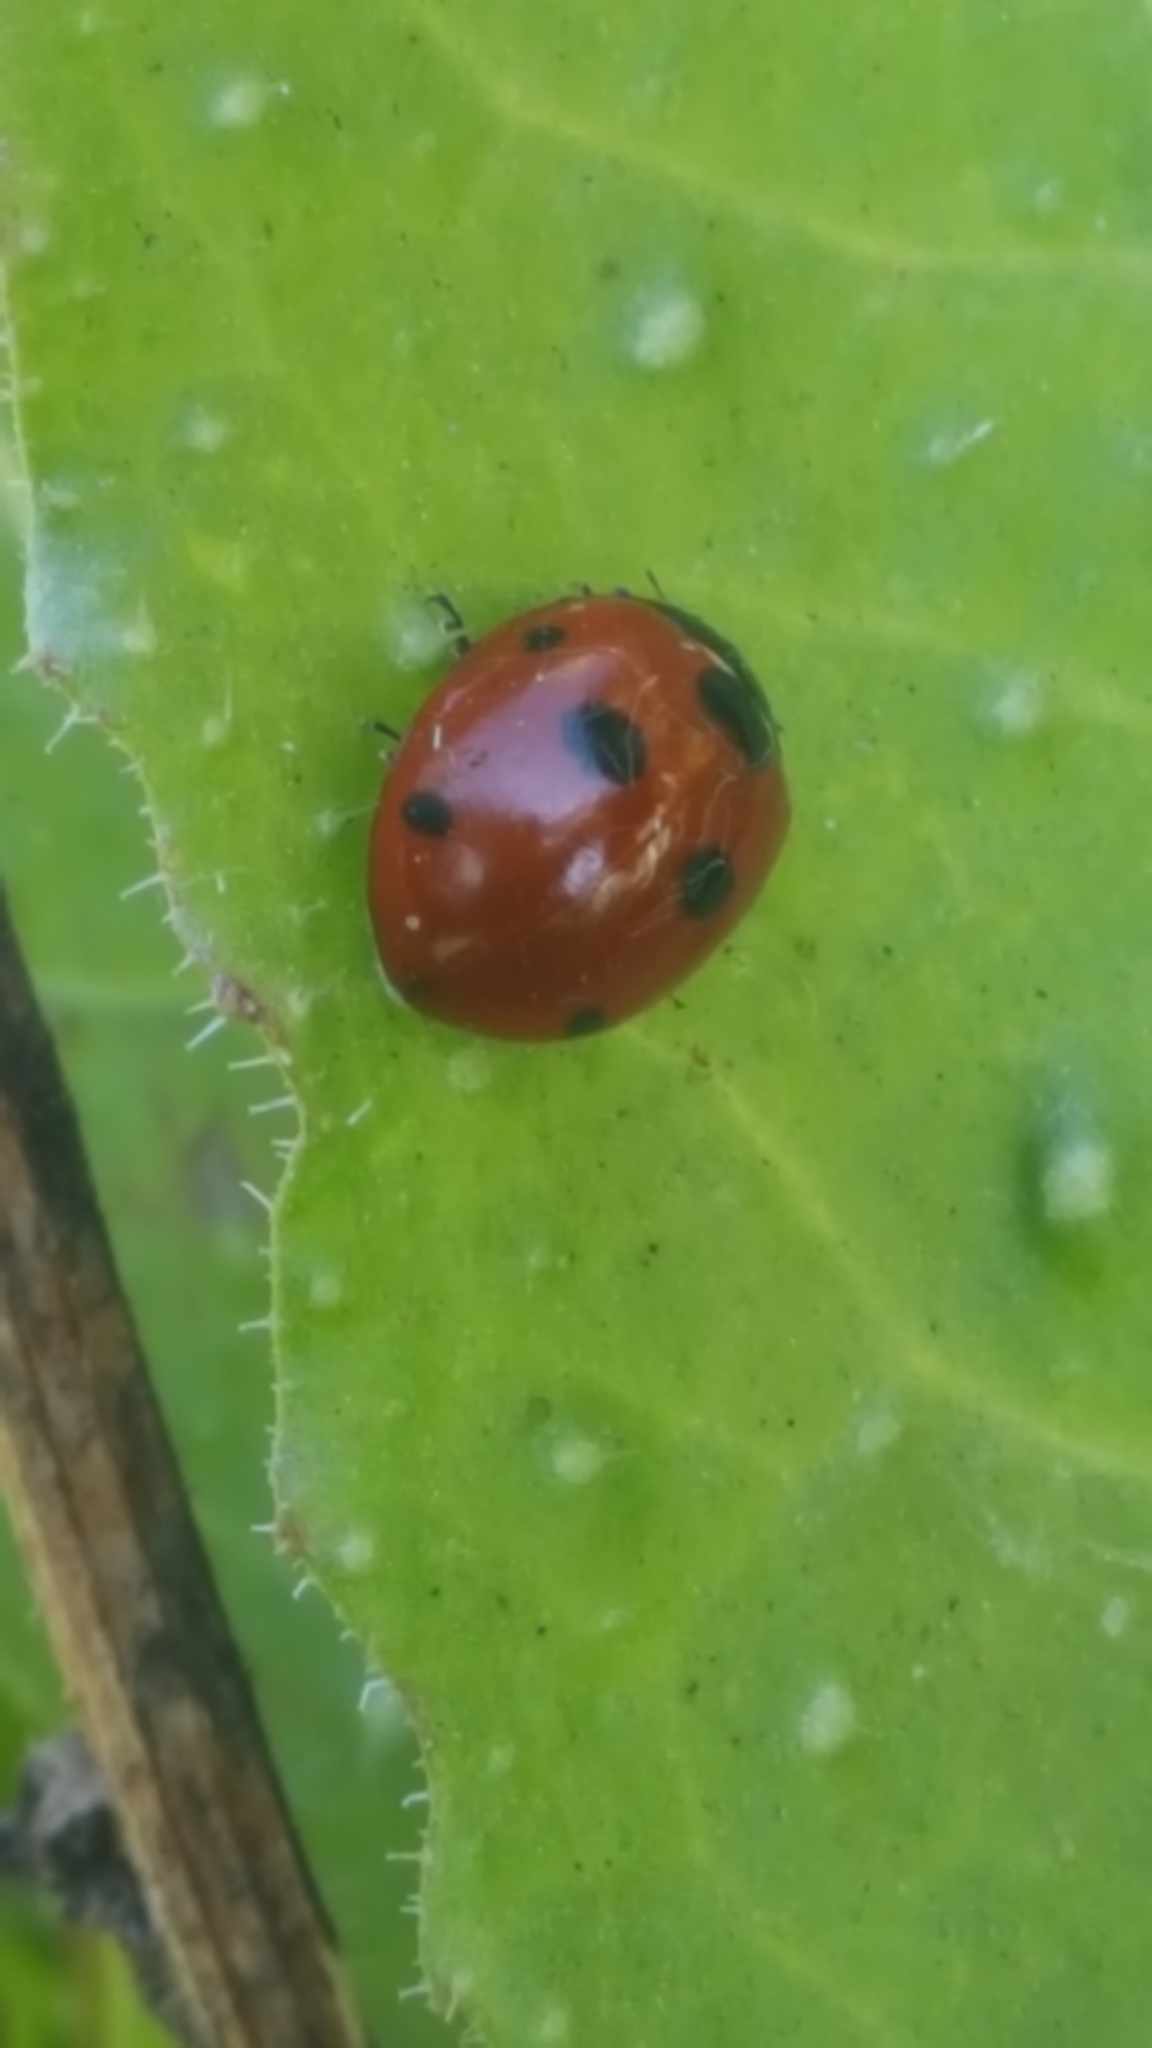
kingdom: Animalia
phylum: Arthropoda
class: Insecta
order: Coleoptera
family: Coccinellidae
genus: Coccinella
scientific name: Coccinella septempunctata
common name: Sevenspotted lady beetle
